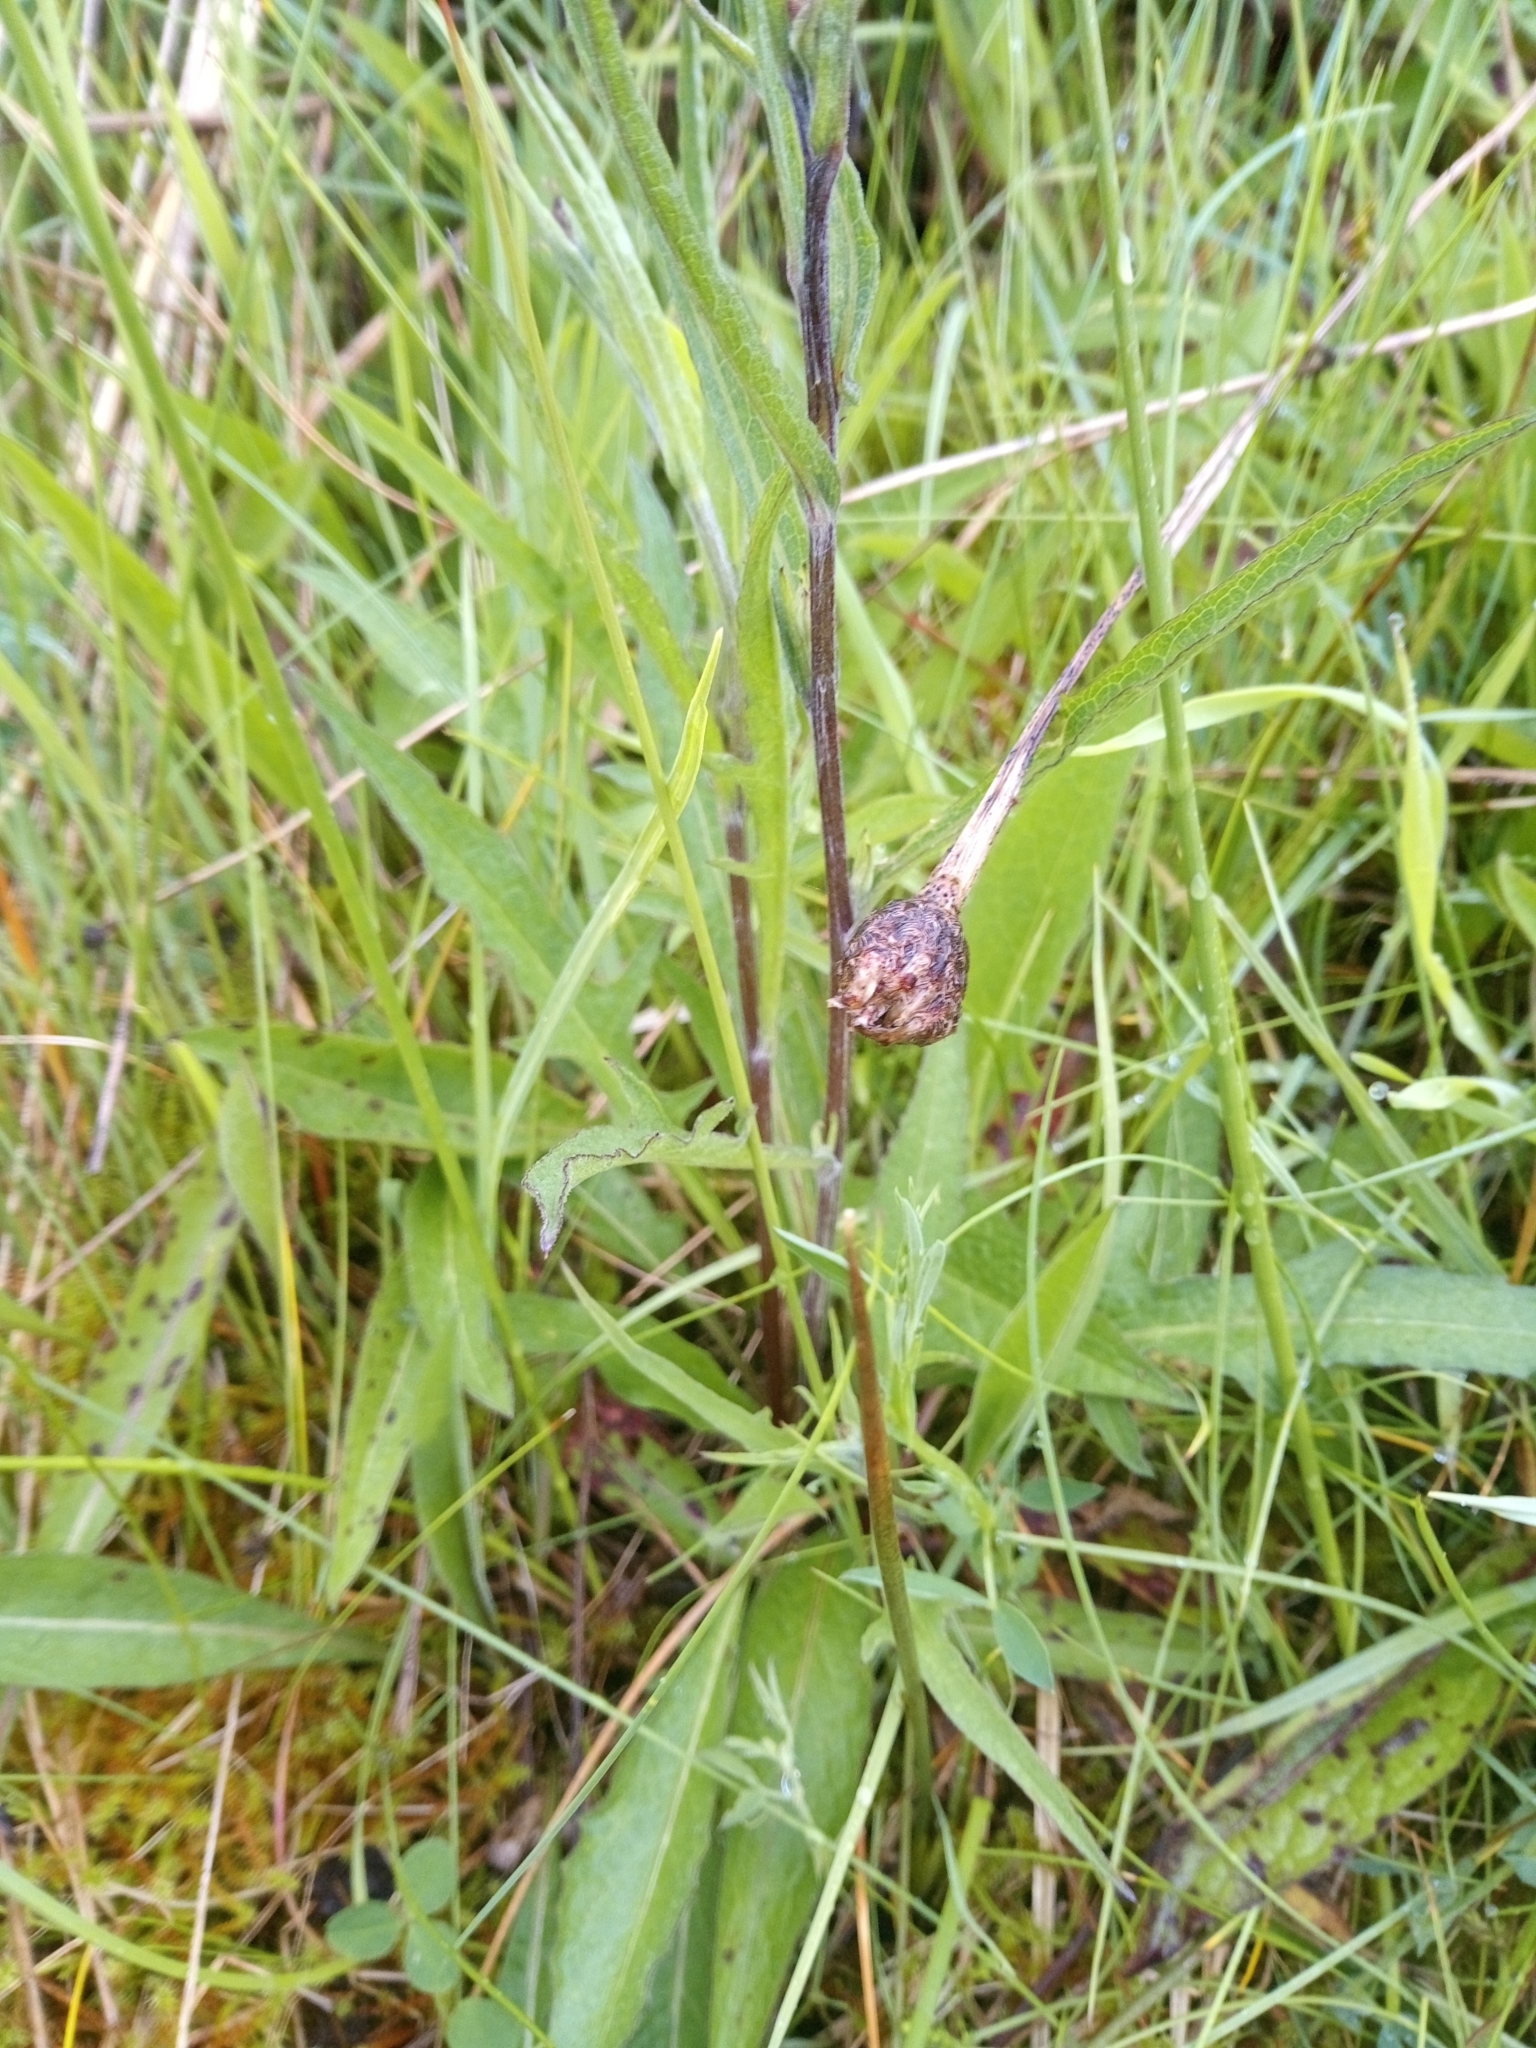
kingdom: Plantae
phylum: Tracheophyta
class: Magnoliopsida
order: Asterales
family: Asteraceae
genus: Centaurea
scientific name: Centaurea nigra
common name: Lesser knapweed
